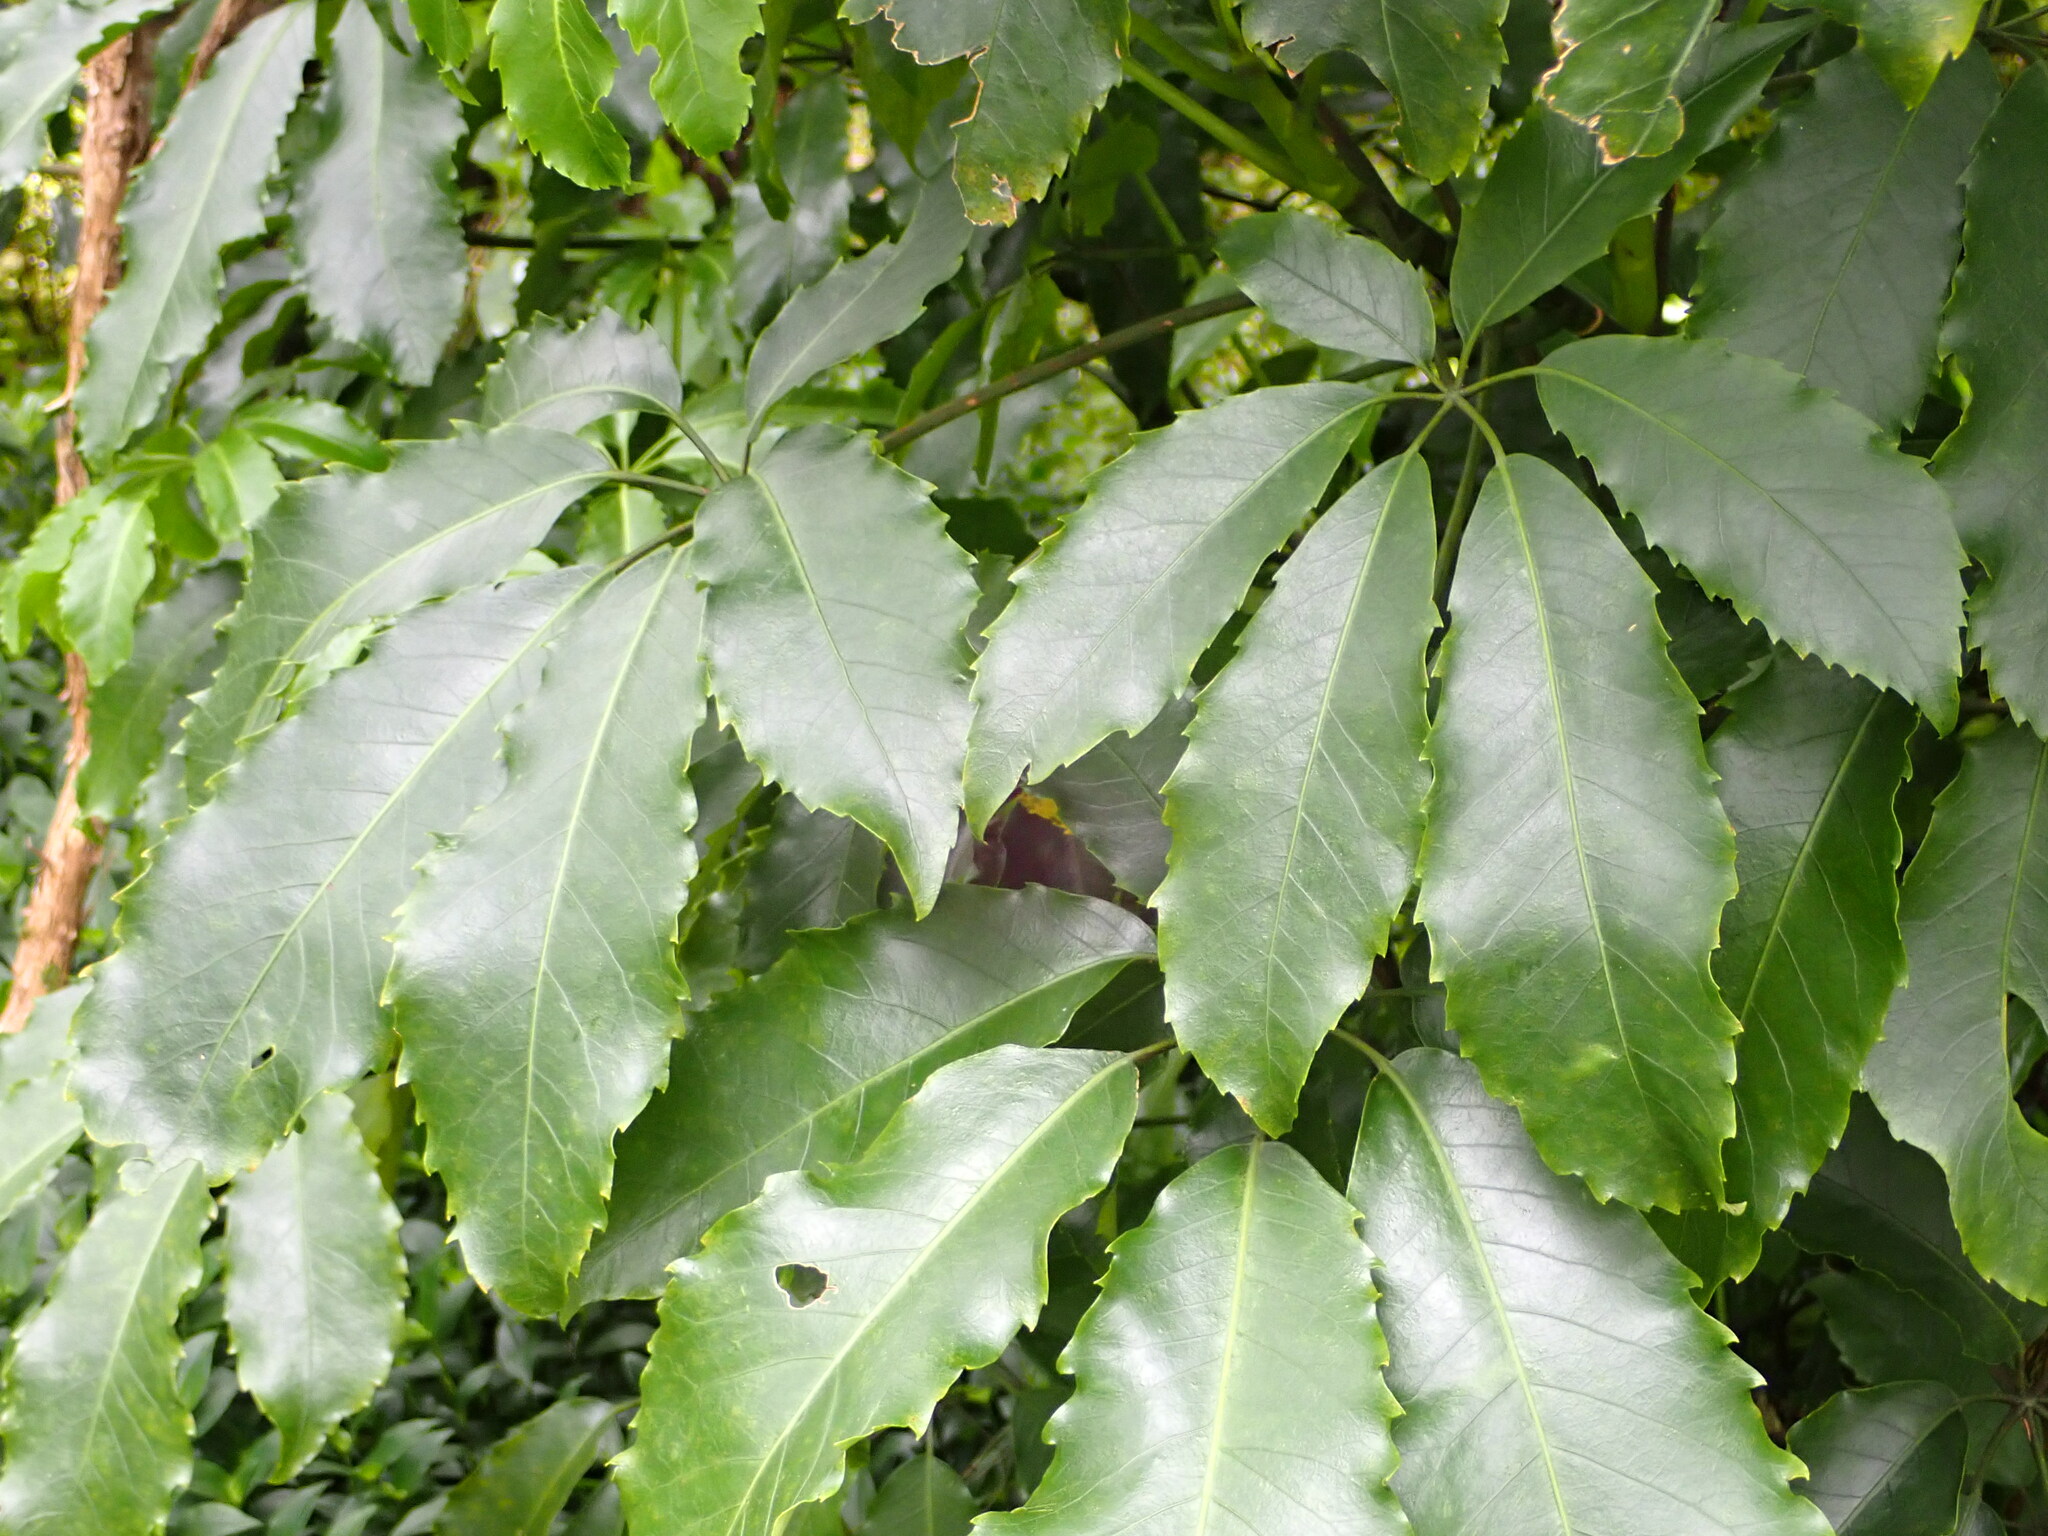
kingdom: Plantae
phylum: Tracheophyta
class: Magnoliopsida
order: Apiales
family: Araliaceae
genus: Neopanax
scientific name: Neopanax arboreus
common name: Five-fingers
